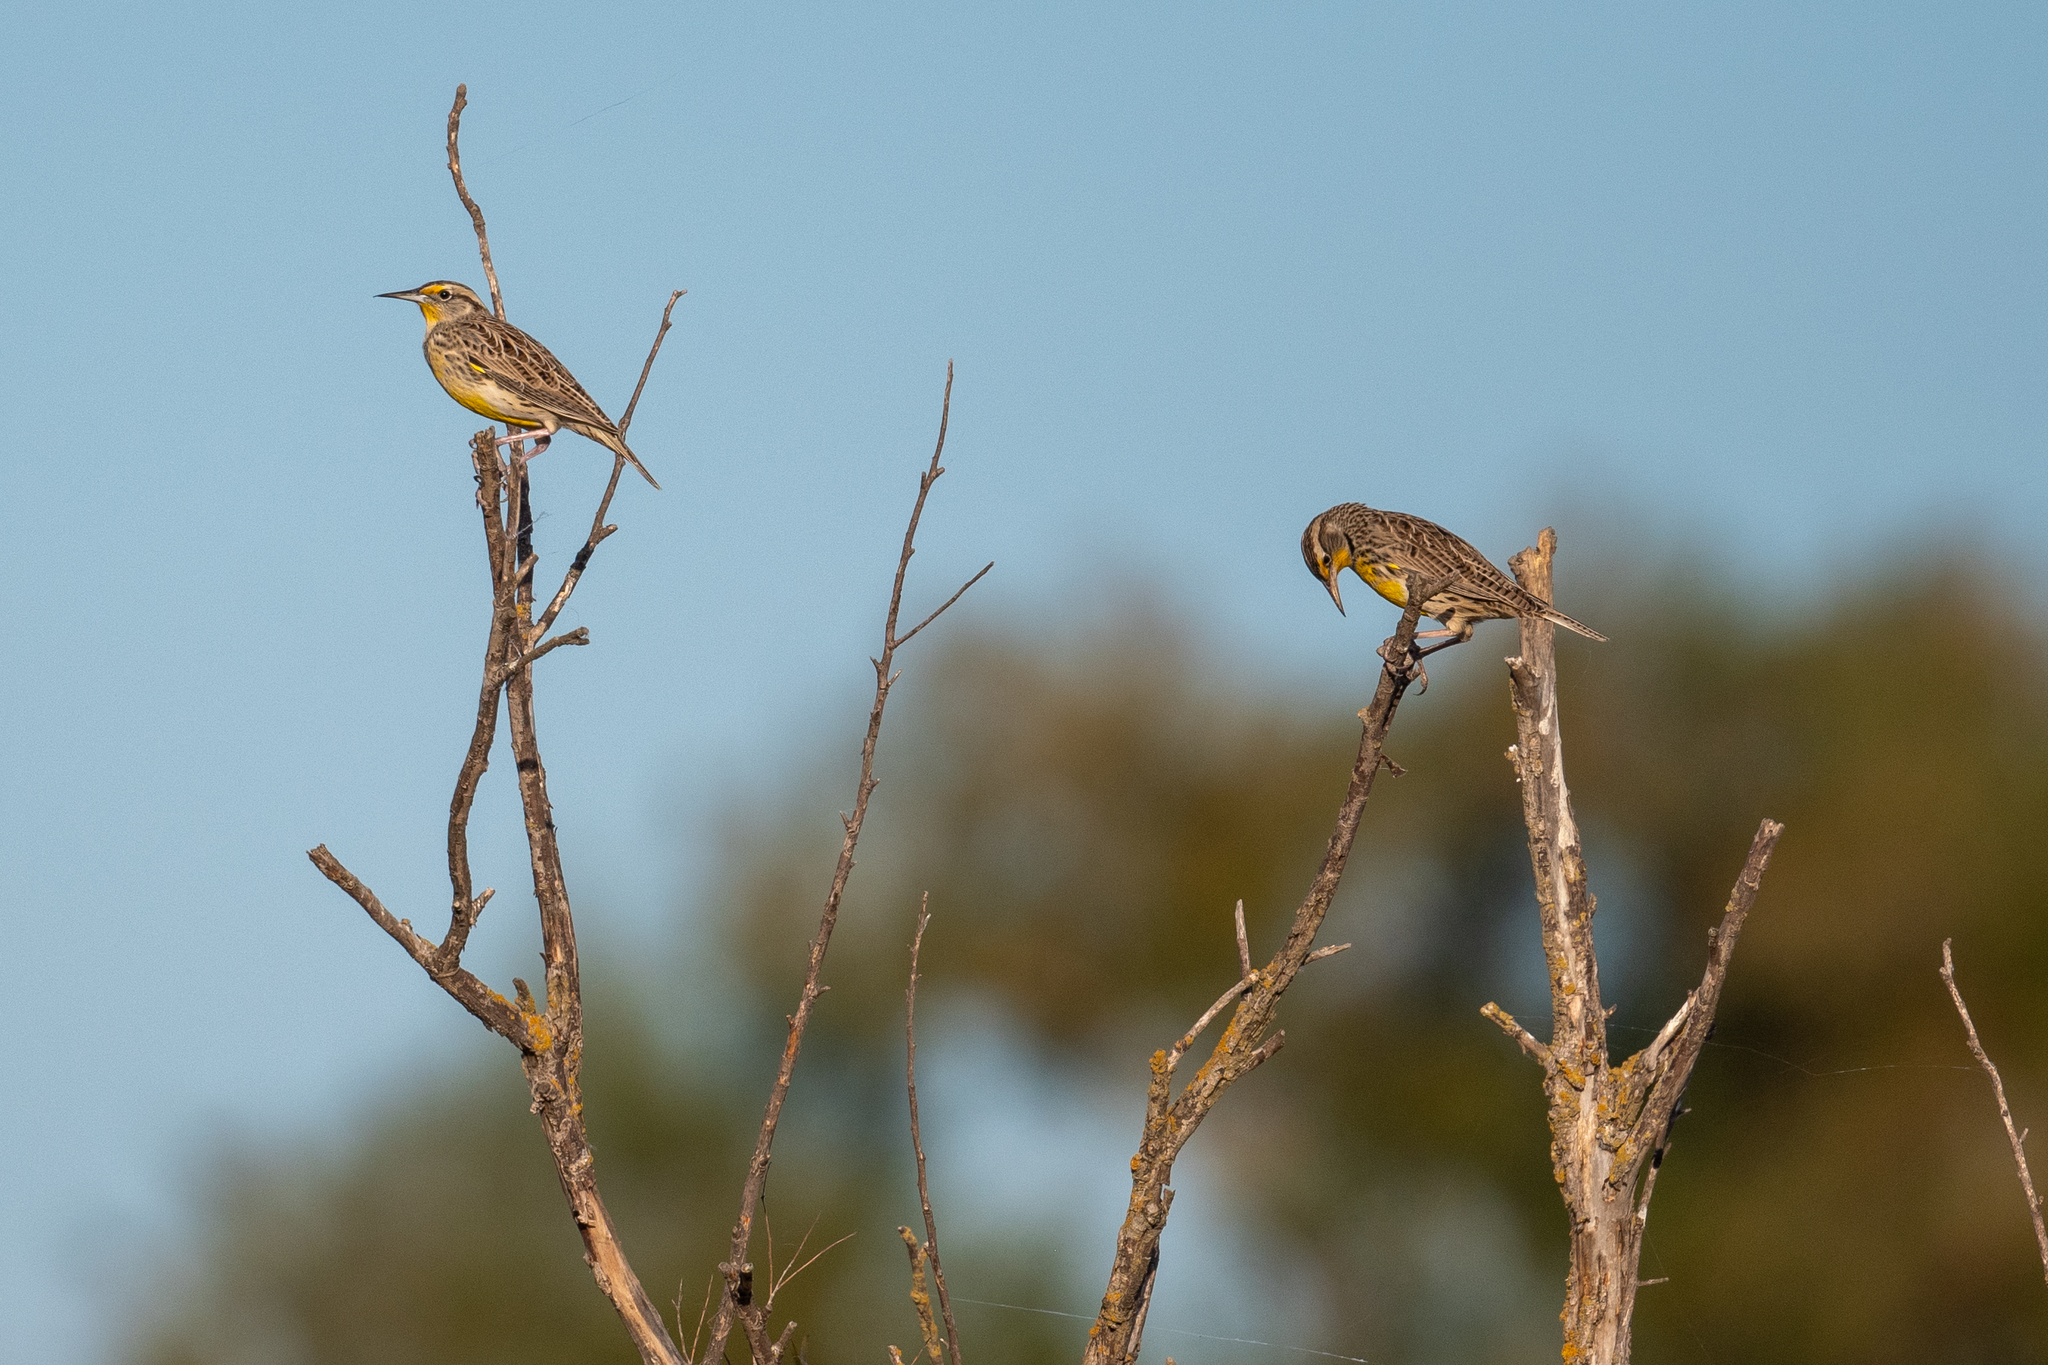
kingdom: Animalia
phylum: Chordata
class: Aves
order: Passeriformes
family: Icteridae
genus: Sturnella
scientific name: Sturnella neglecta
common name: Western meadowlark
